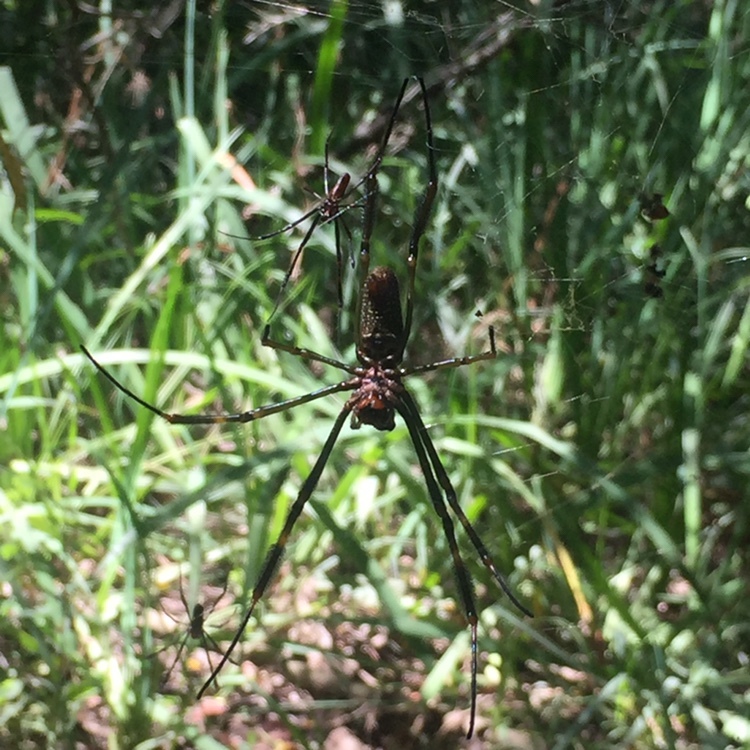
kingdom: Animalia
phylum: Arthropoda
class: Arachnida
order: Araneae
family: Araneidae
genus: Trichonephila
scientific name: Trichonephila clavipes
